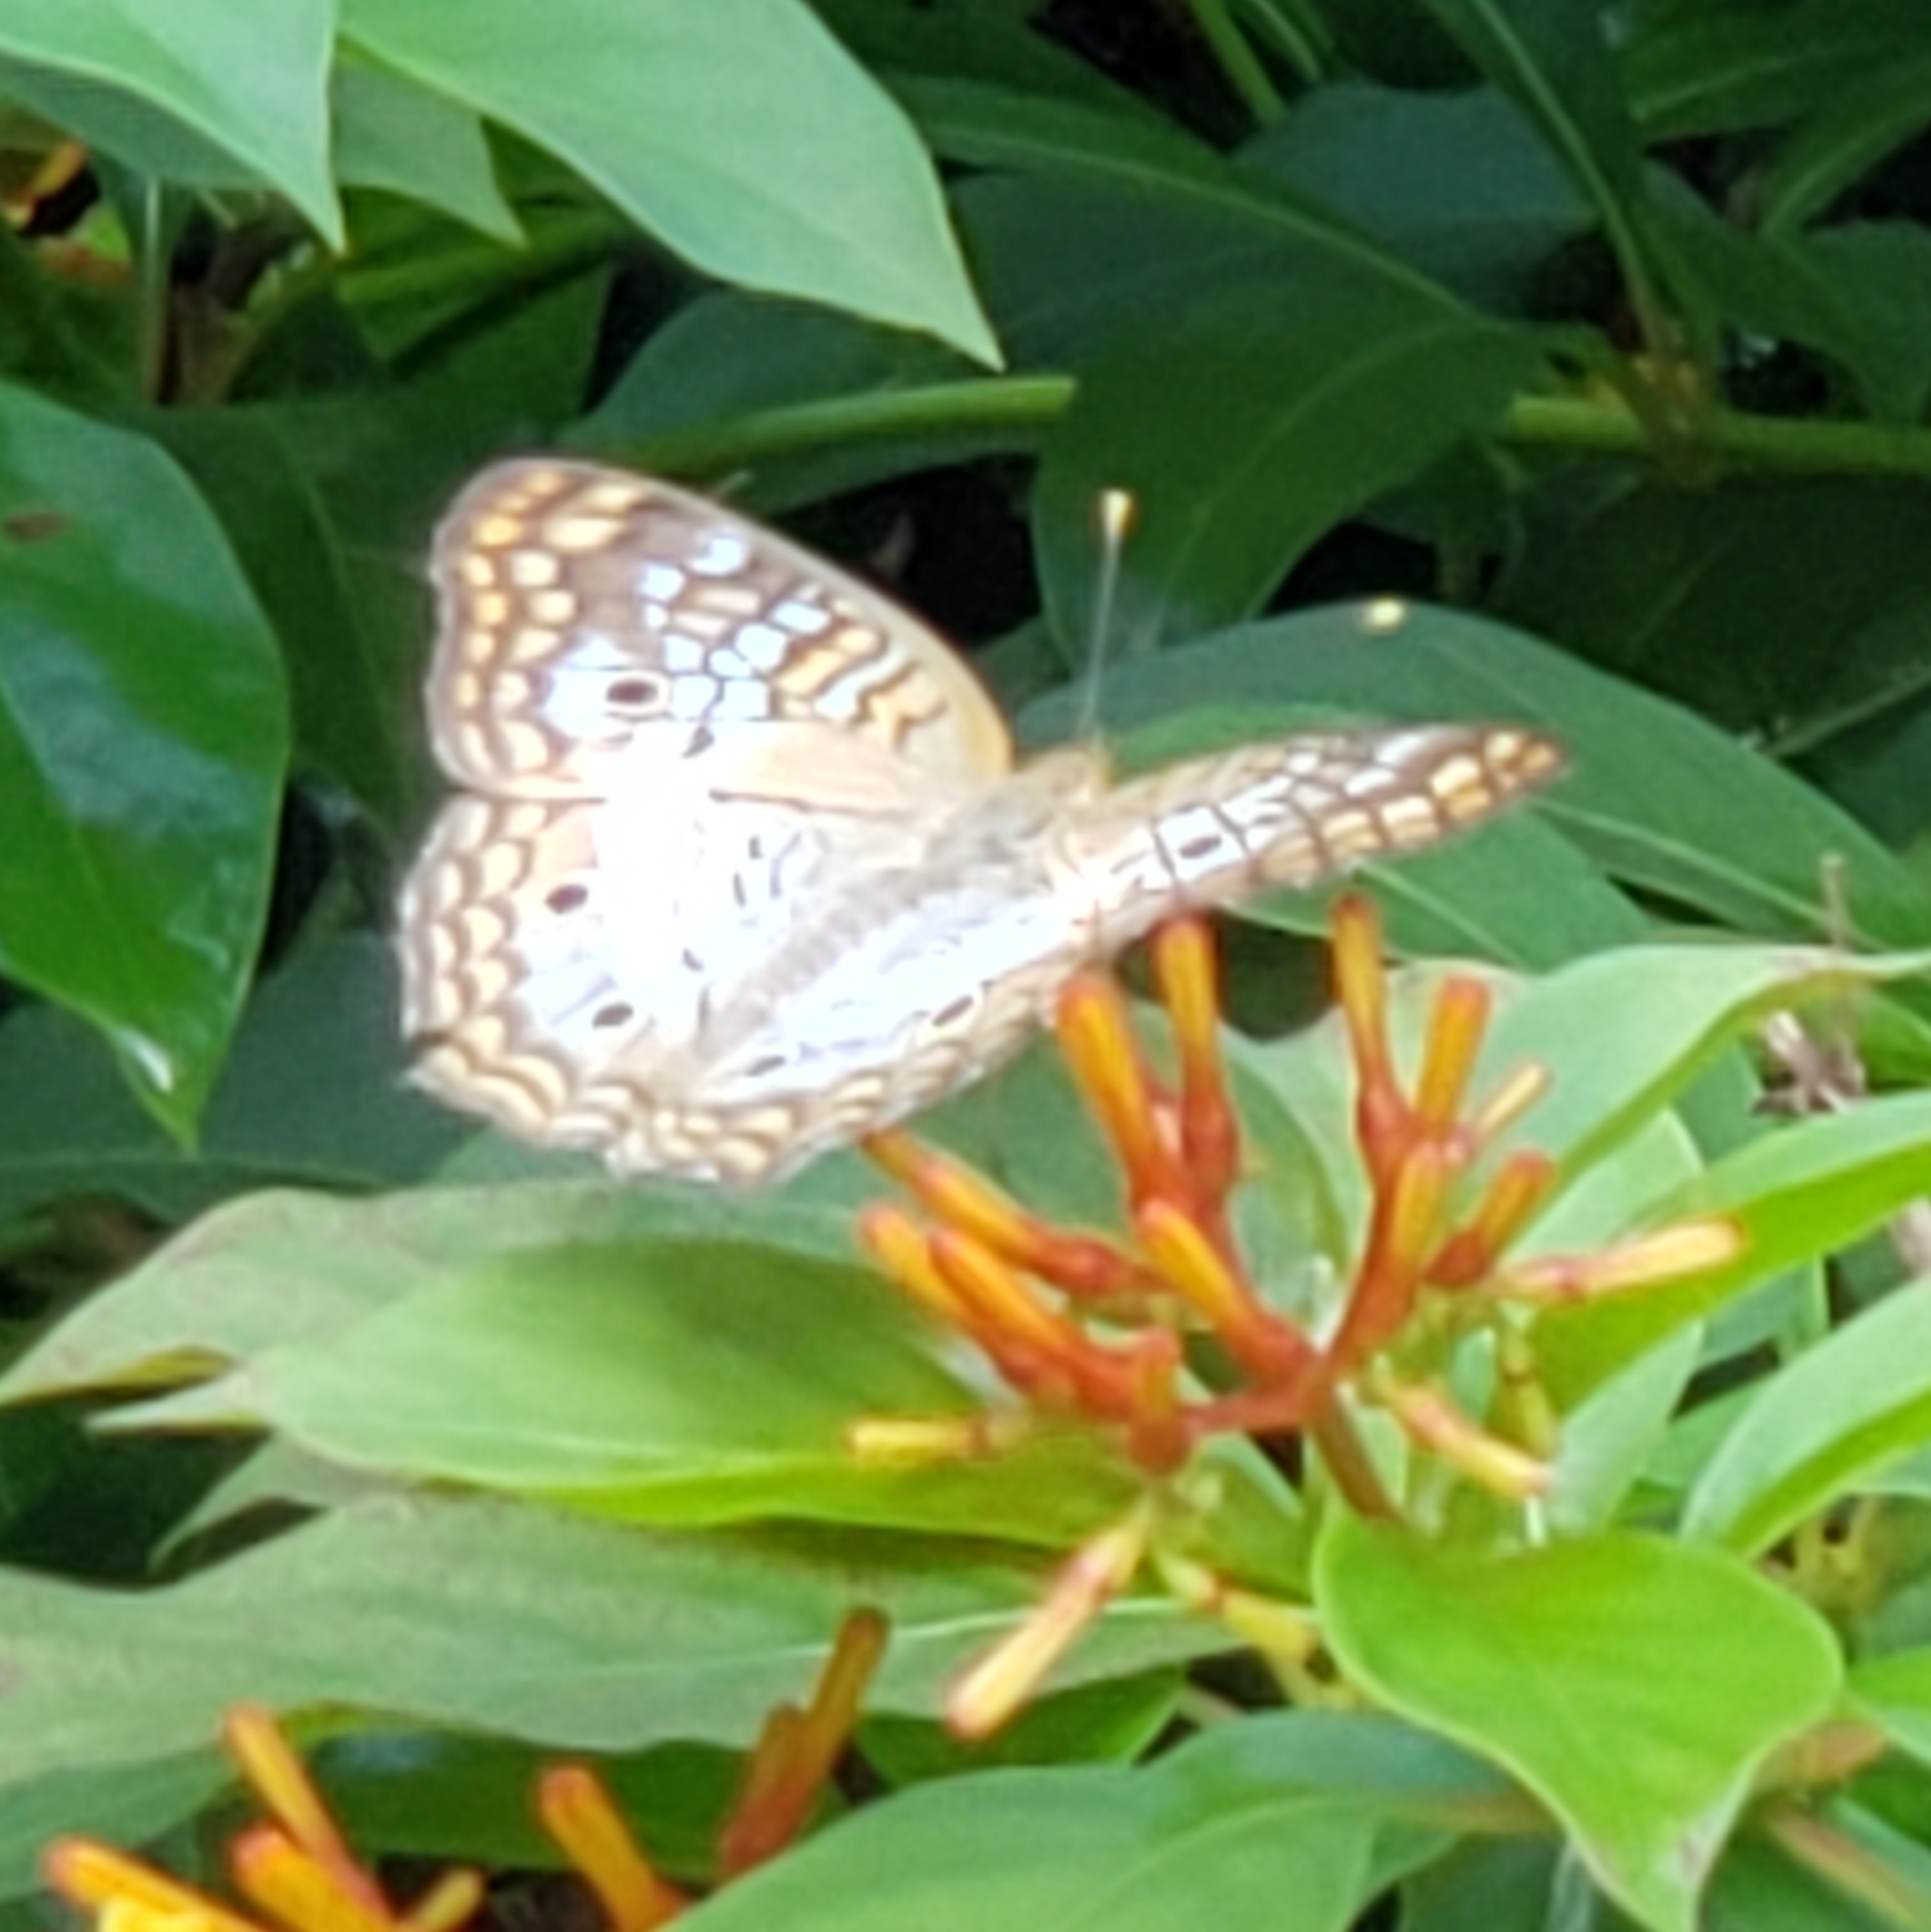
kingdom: Animalia
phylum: Arthropoda
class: Insecta
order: Lepidoptera
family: Nymphalidae
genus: Anartia
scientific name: Anartia jatrophae
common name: White peacock
